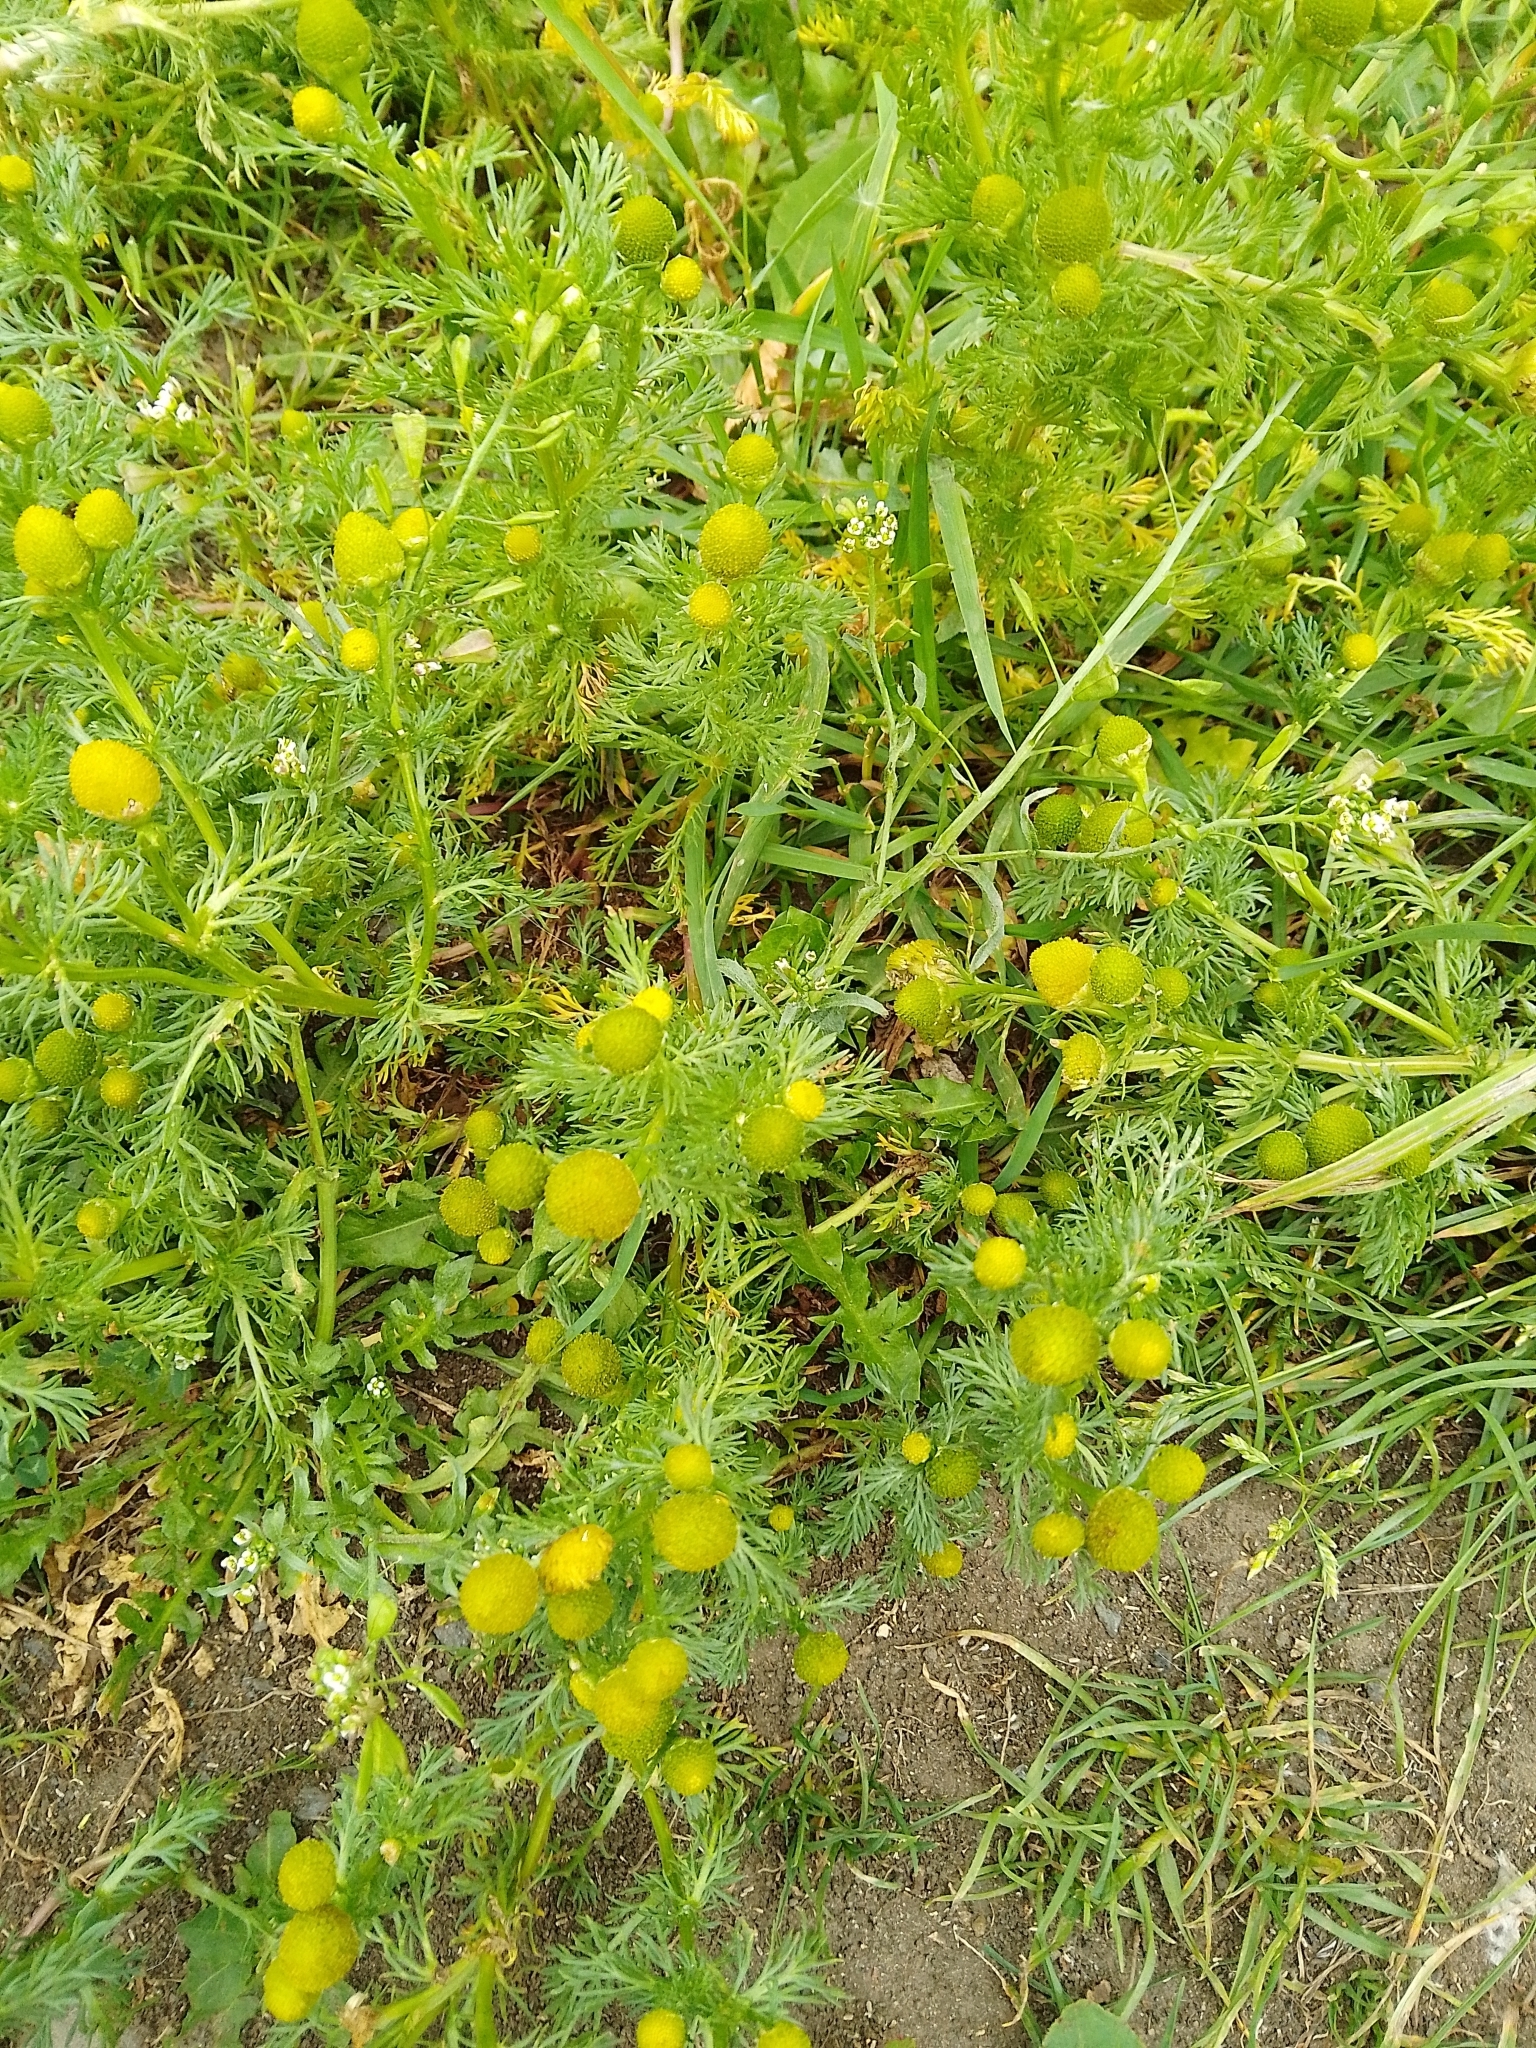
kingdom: Plantae
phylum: Tracheophyta
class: Magnoliopsida
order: Asterales
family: Asteraceae
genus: Matricaria
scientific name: Matricaria discoidea
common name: Disc mayweed
